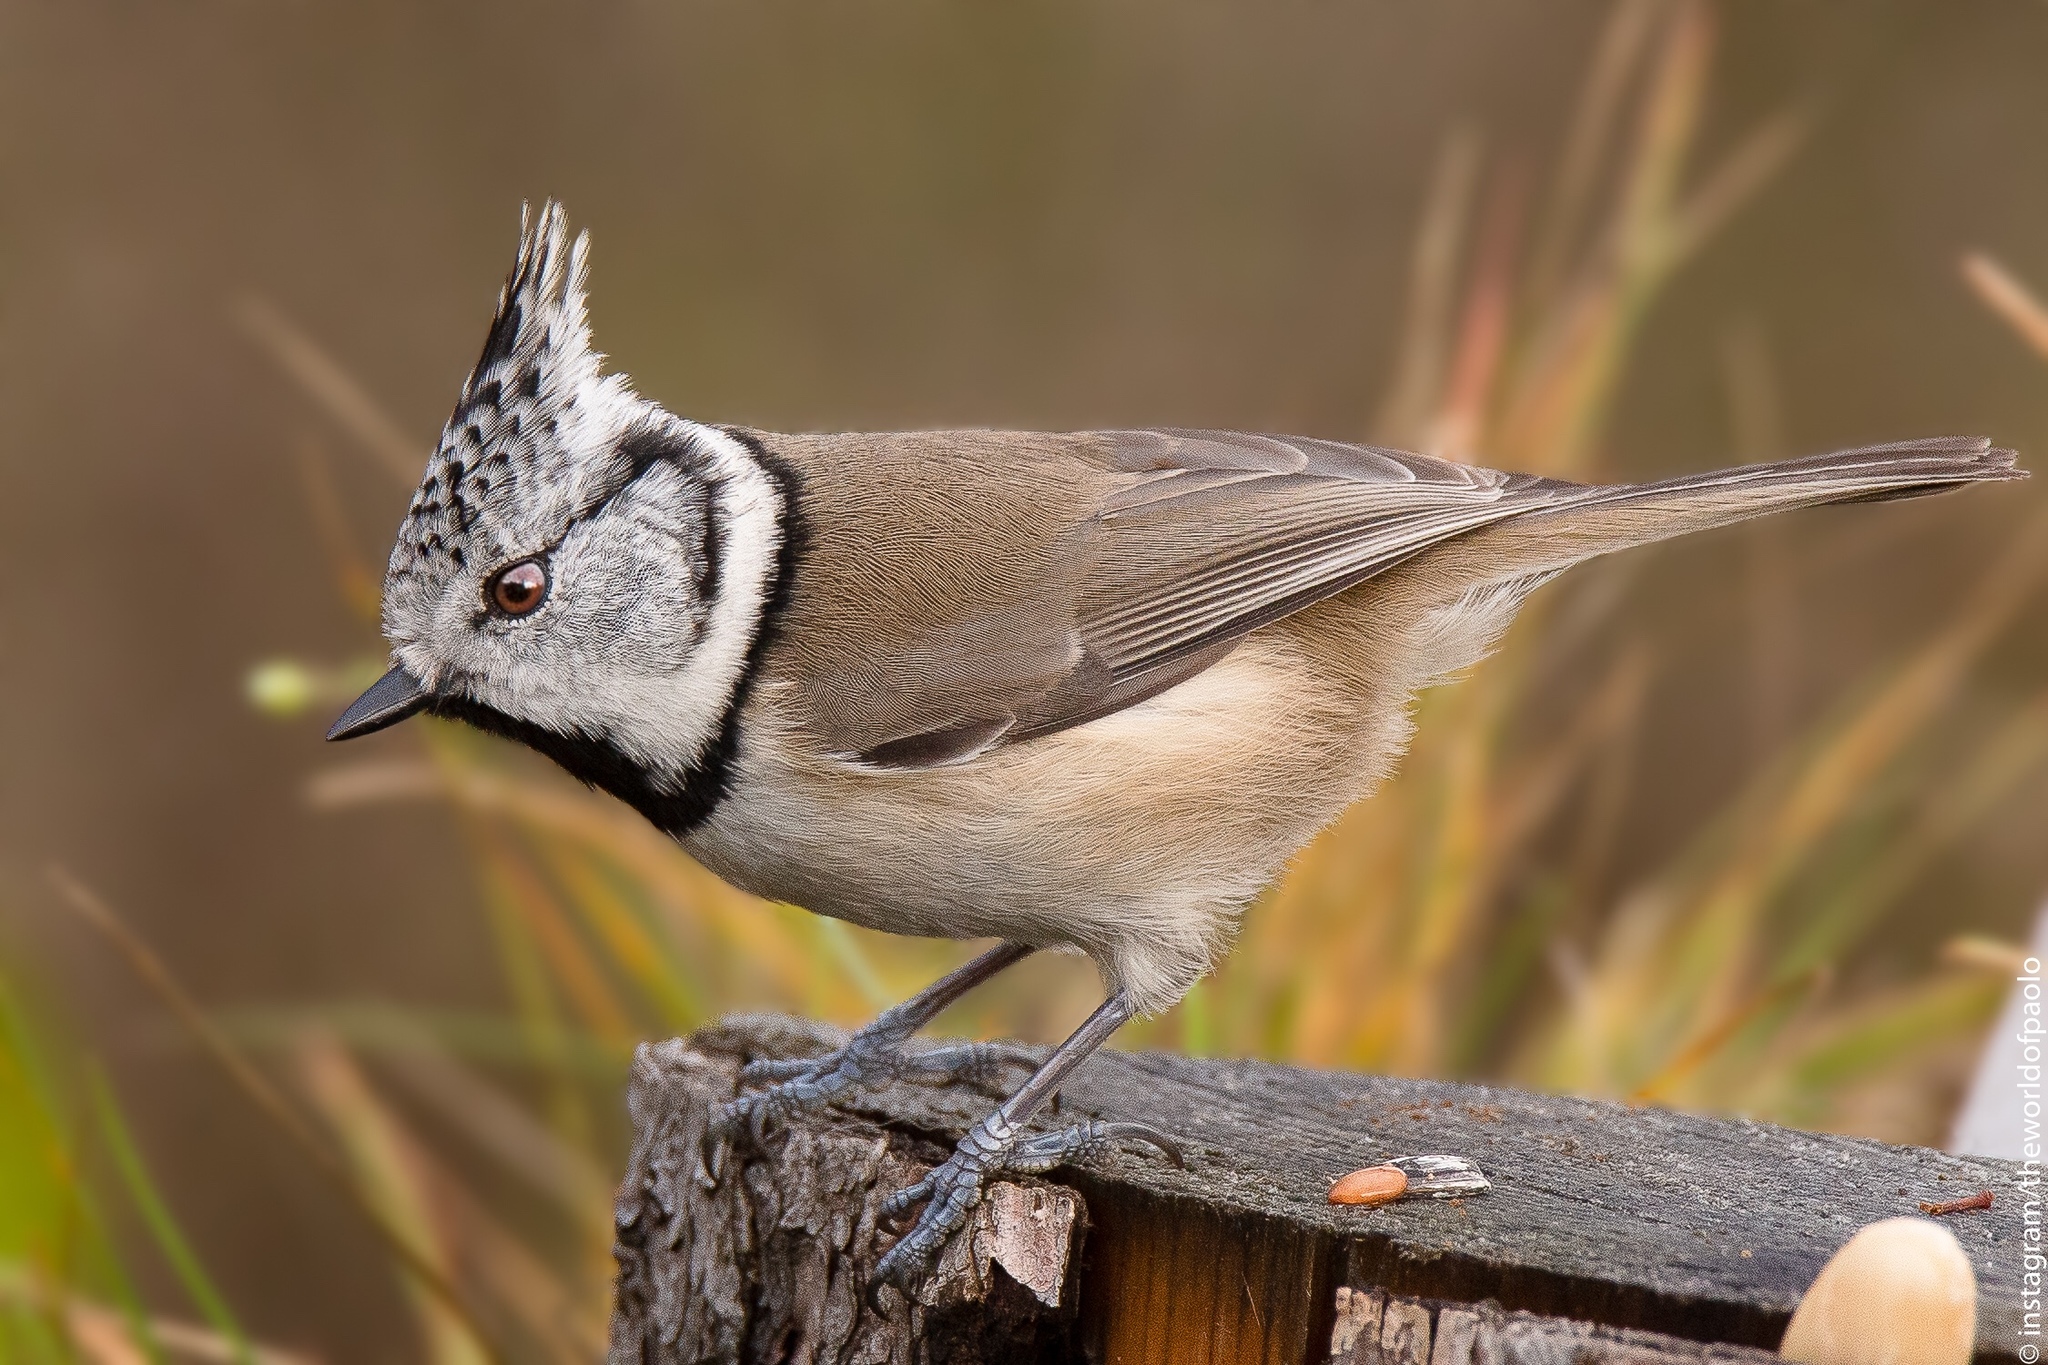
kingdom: Animalia
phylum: Chordata
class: Aves
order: Passeriformes
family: Paridae
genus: Lophophanes
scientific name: Lophophanes cristatus
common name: European crested tit
